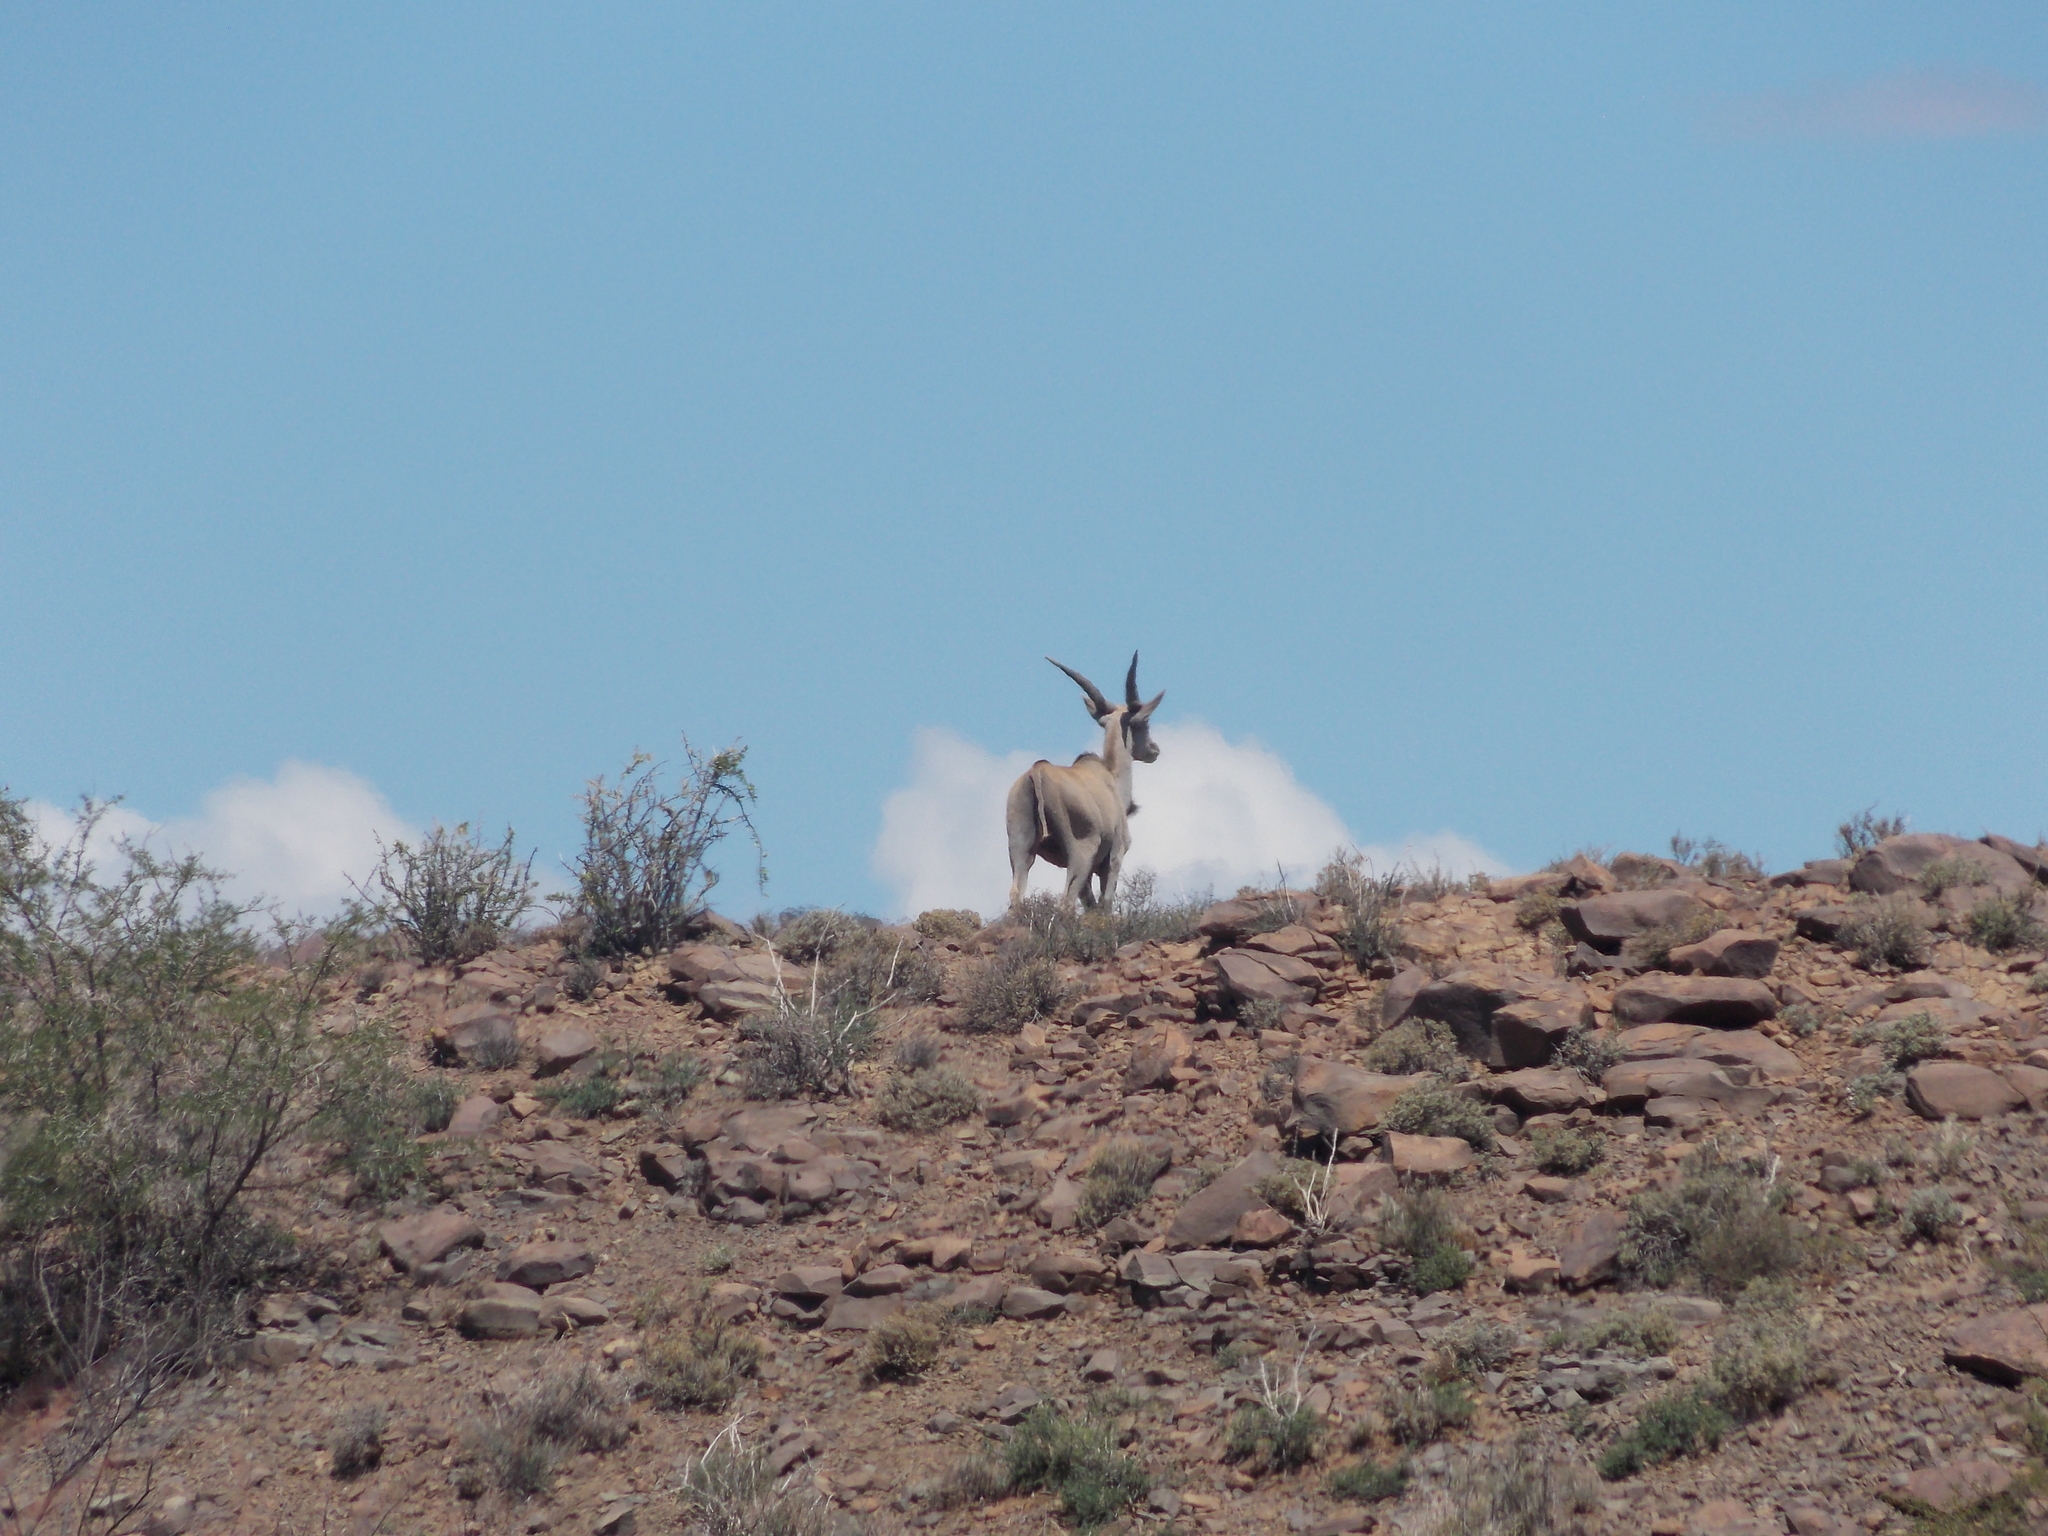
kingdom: Animalia
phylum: Chordata
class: Mammalia
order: Artiodactyla
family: Bovidae
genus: Taurotragus
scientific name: Taurotragus oryx
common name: Common eland
